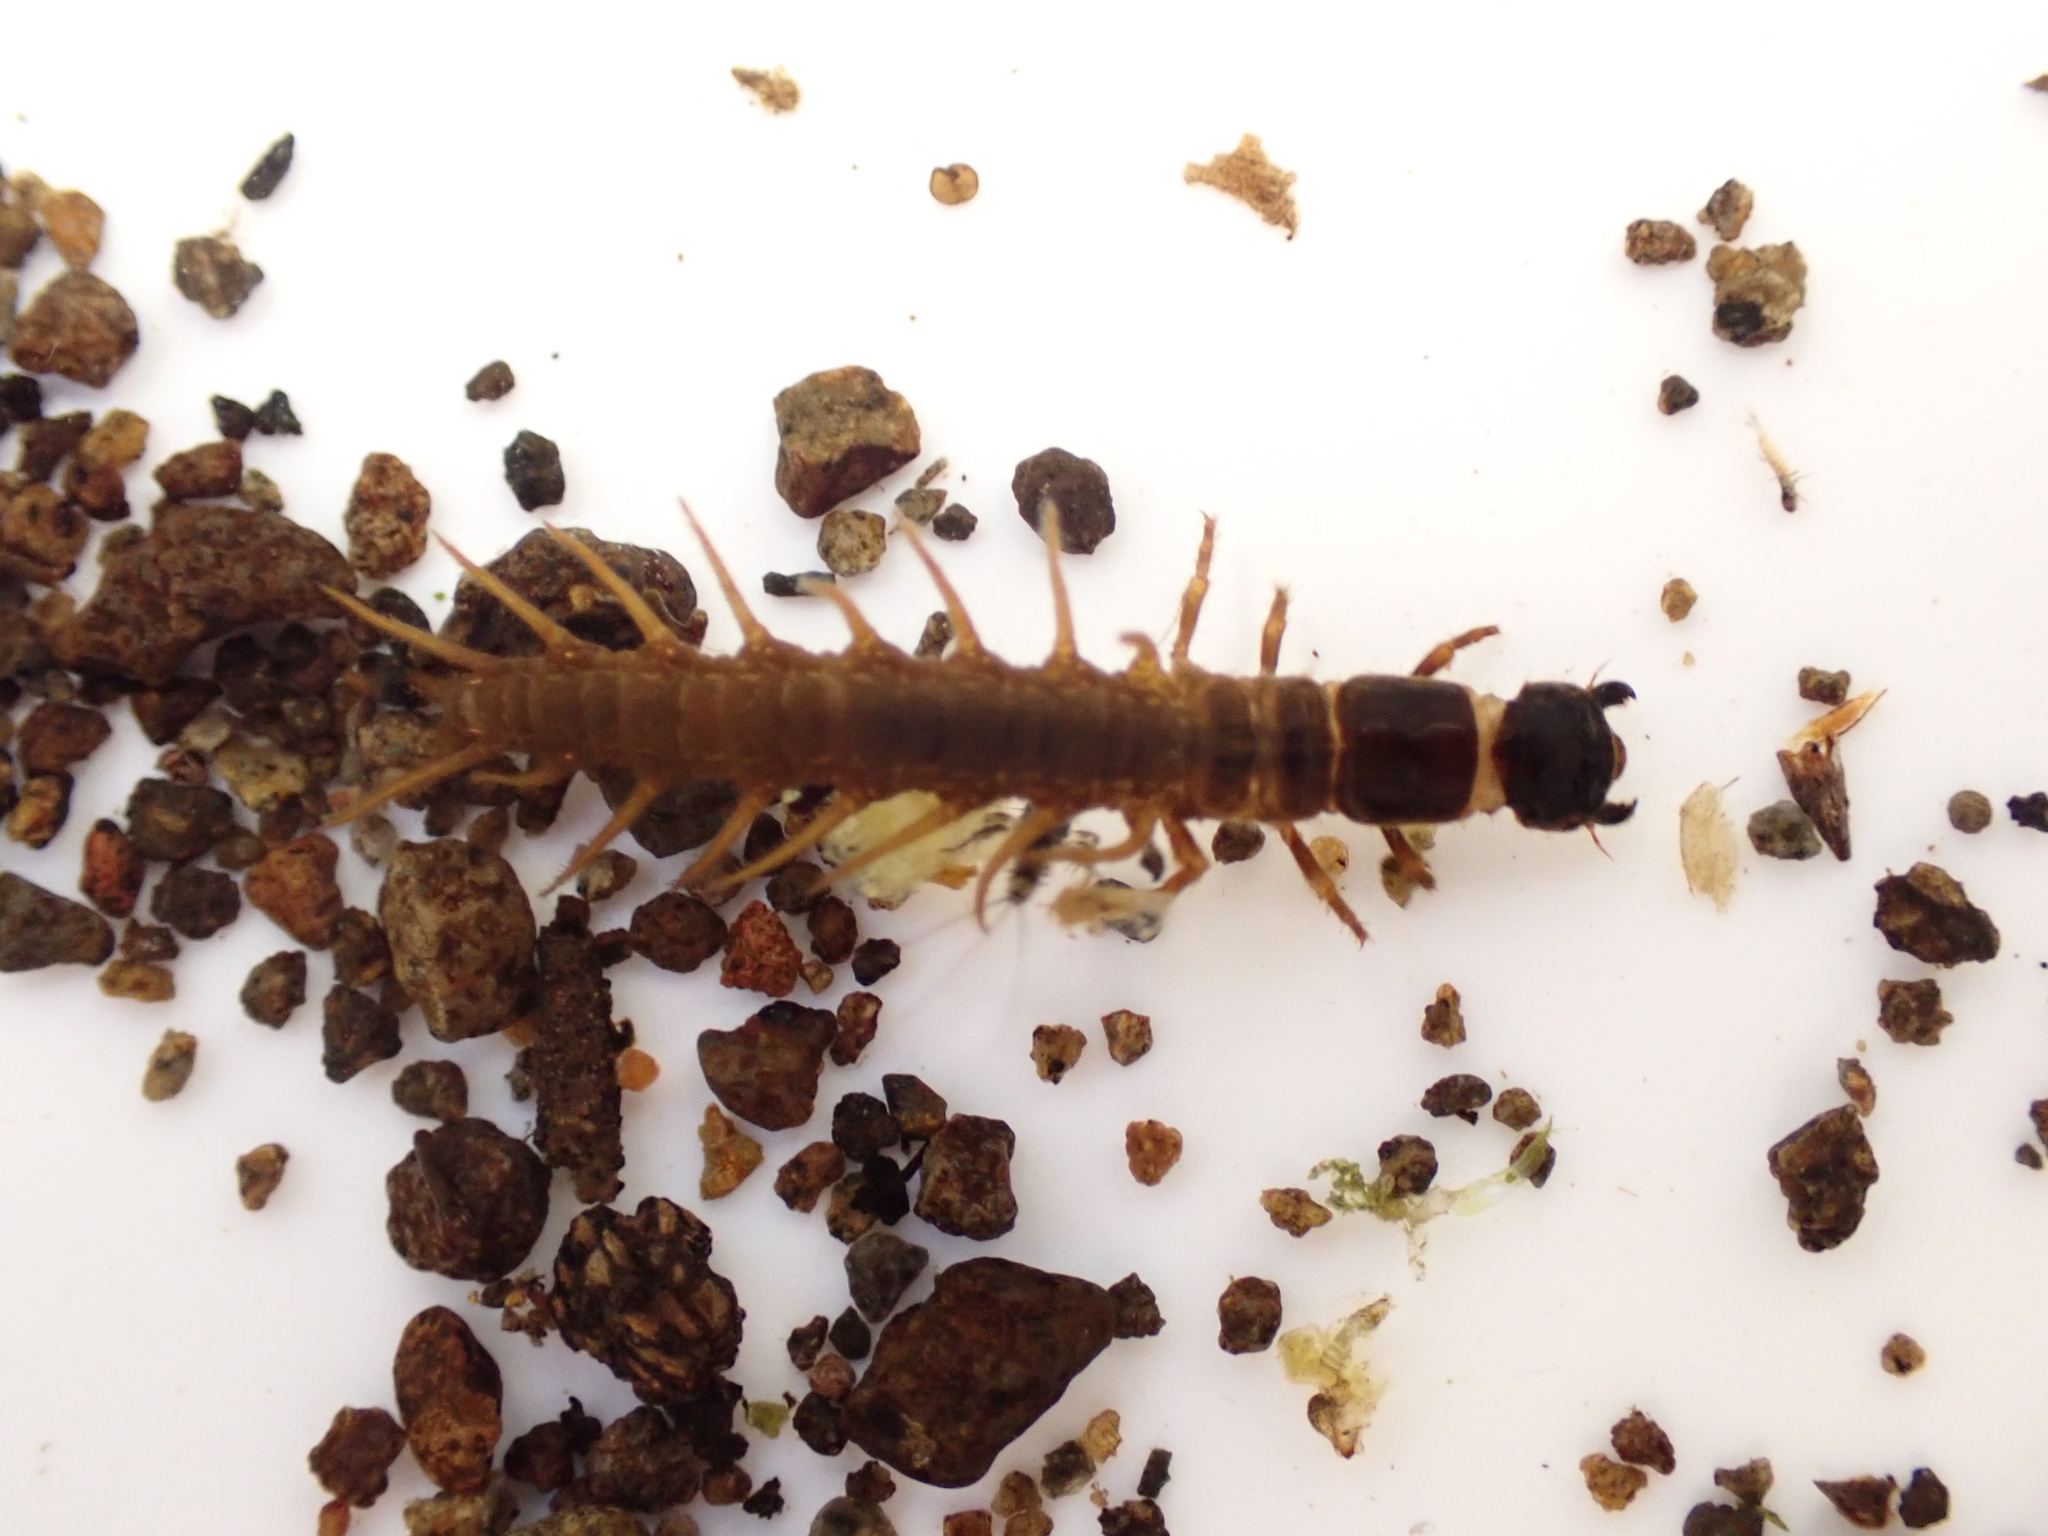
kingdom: Animalia
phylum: Arthropoda
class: Insecta
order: Megaloptera
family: Corydalidae
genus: Archichauliodes
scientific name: Archichauliodes diversus
